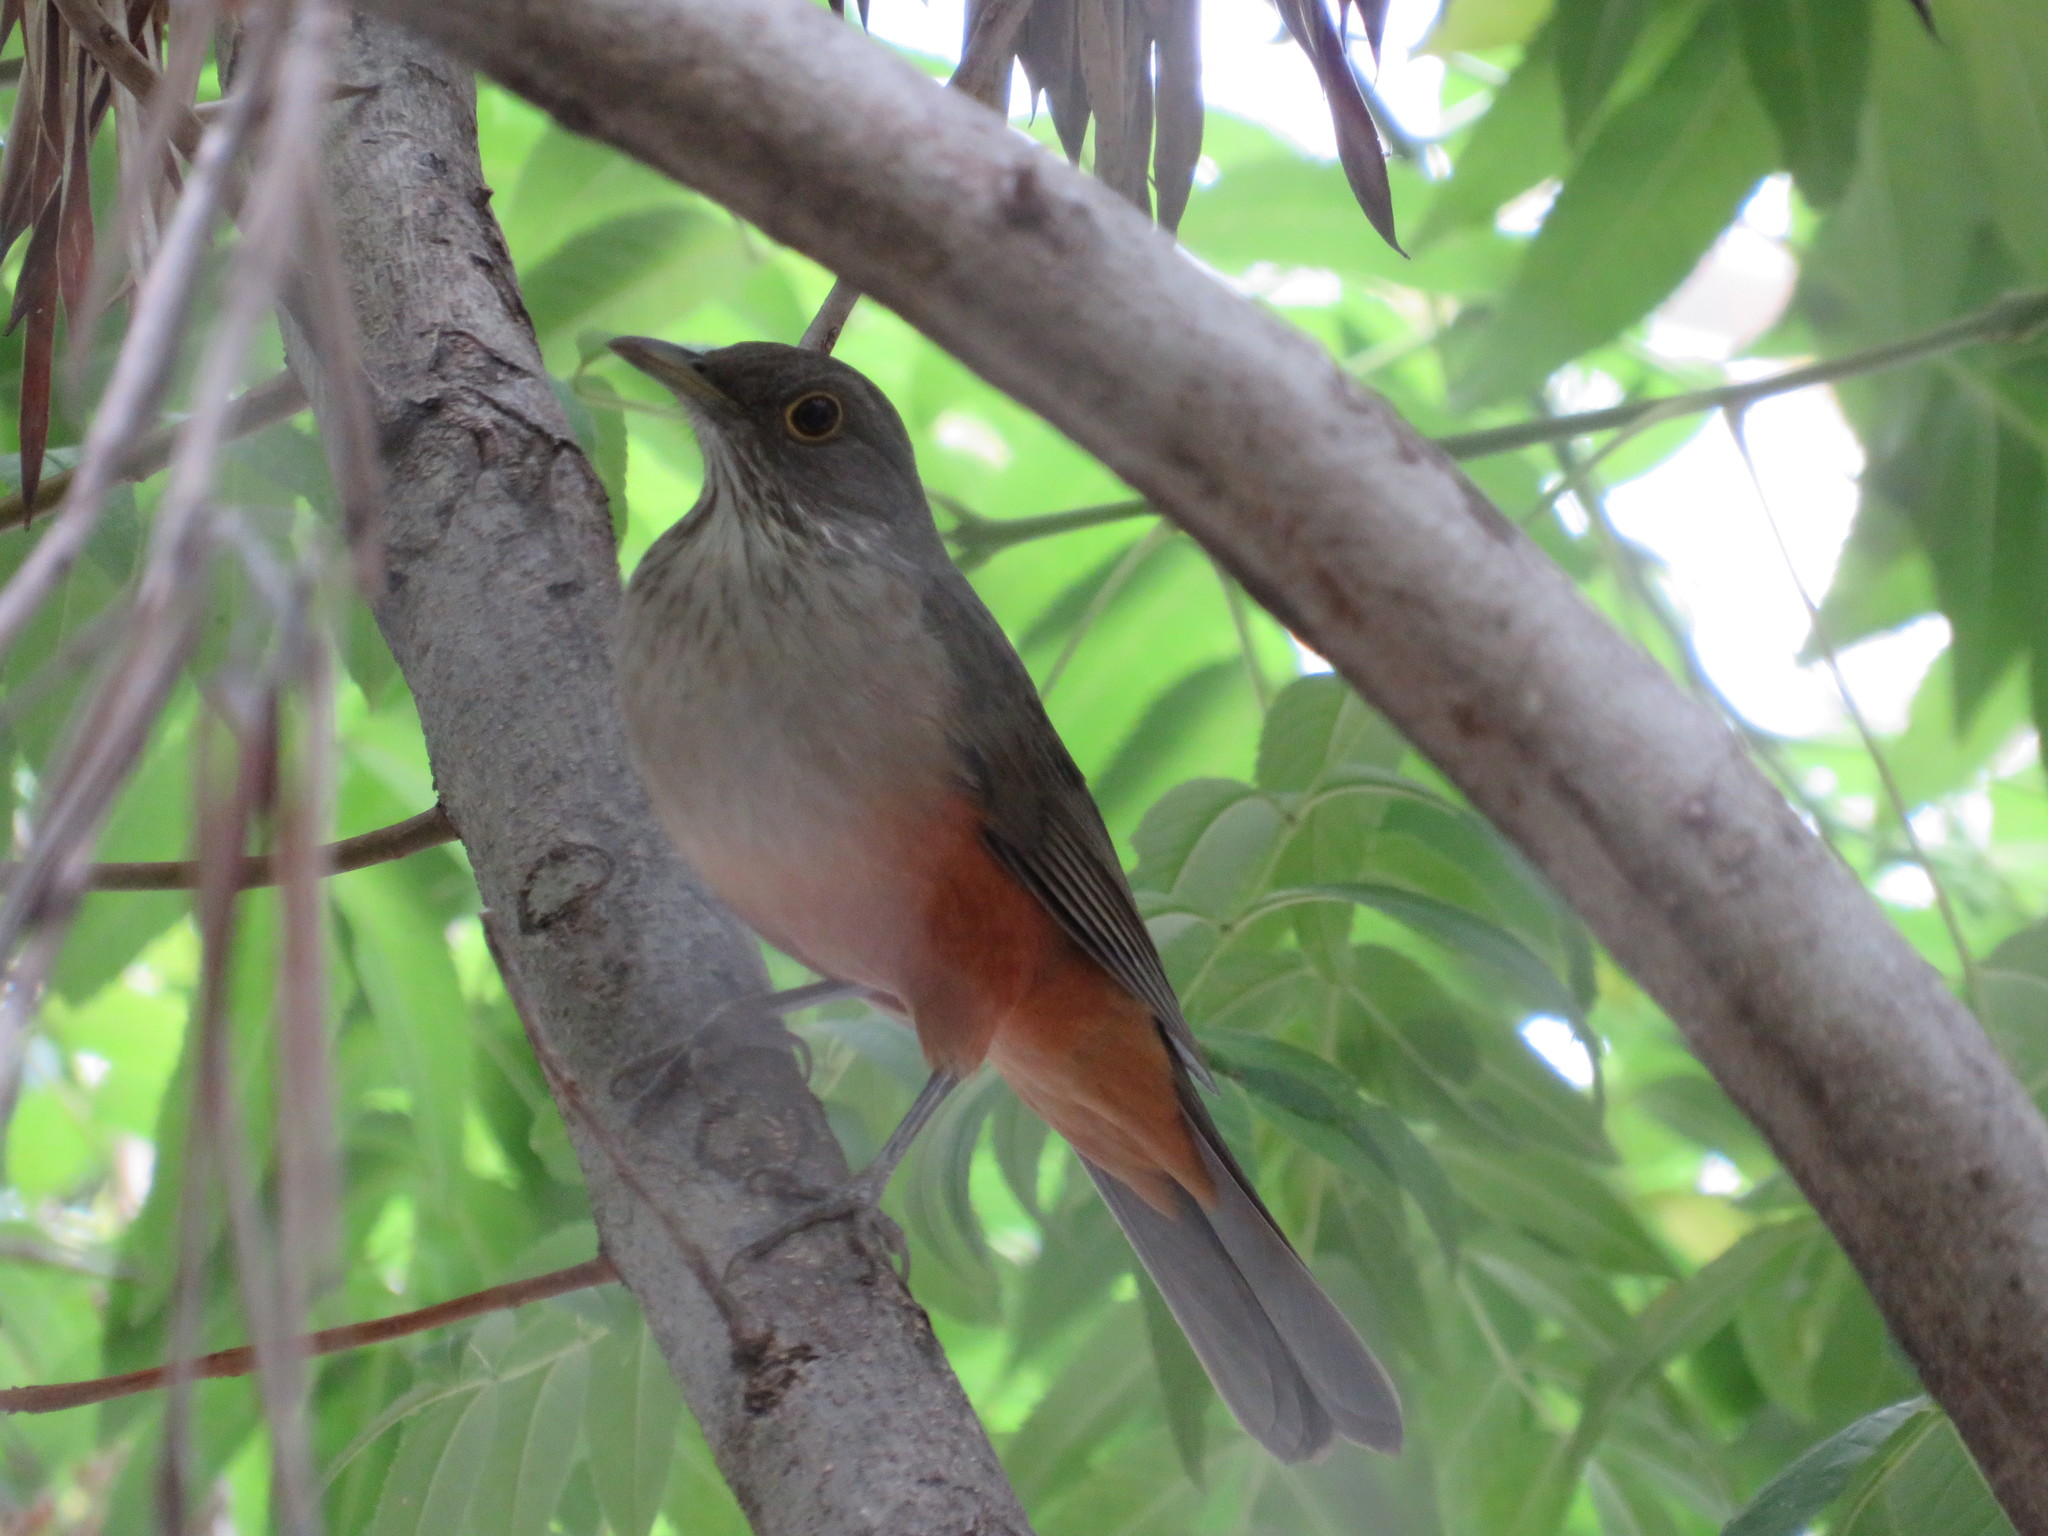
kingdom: Animalia
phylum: Chordata
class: Aves
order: Passeriformes
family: Turdidae
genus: Turdus
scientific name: Turdus rufiventris
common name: Rufous-bellied thrush
